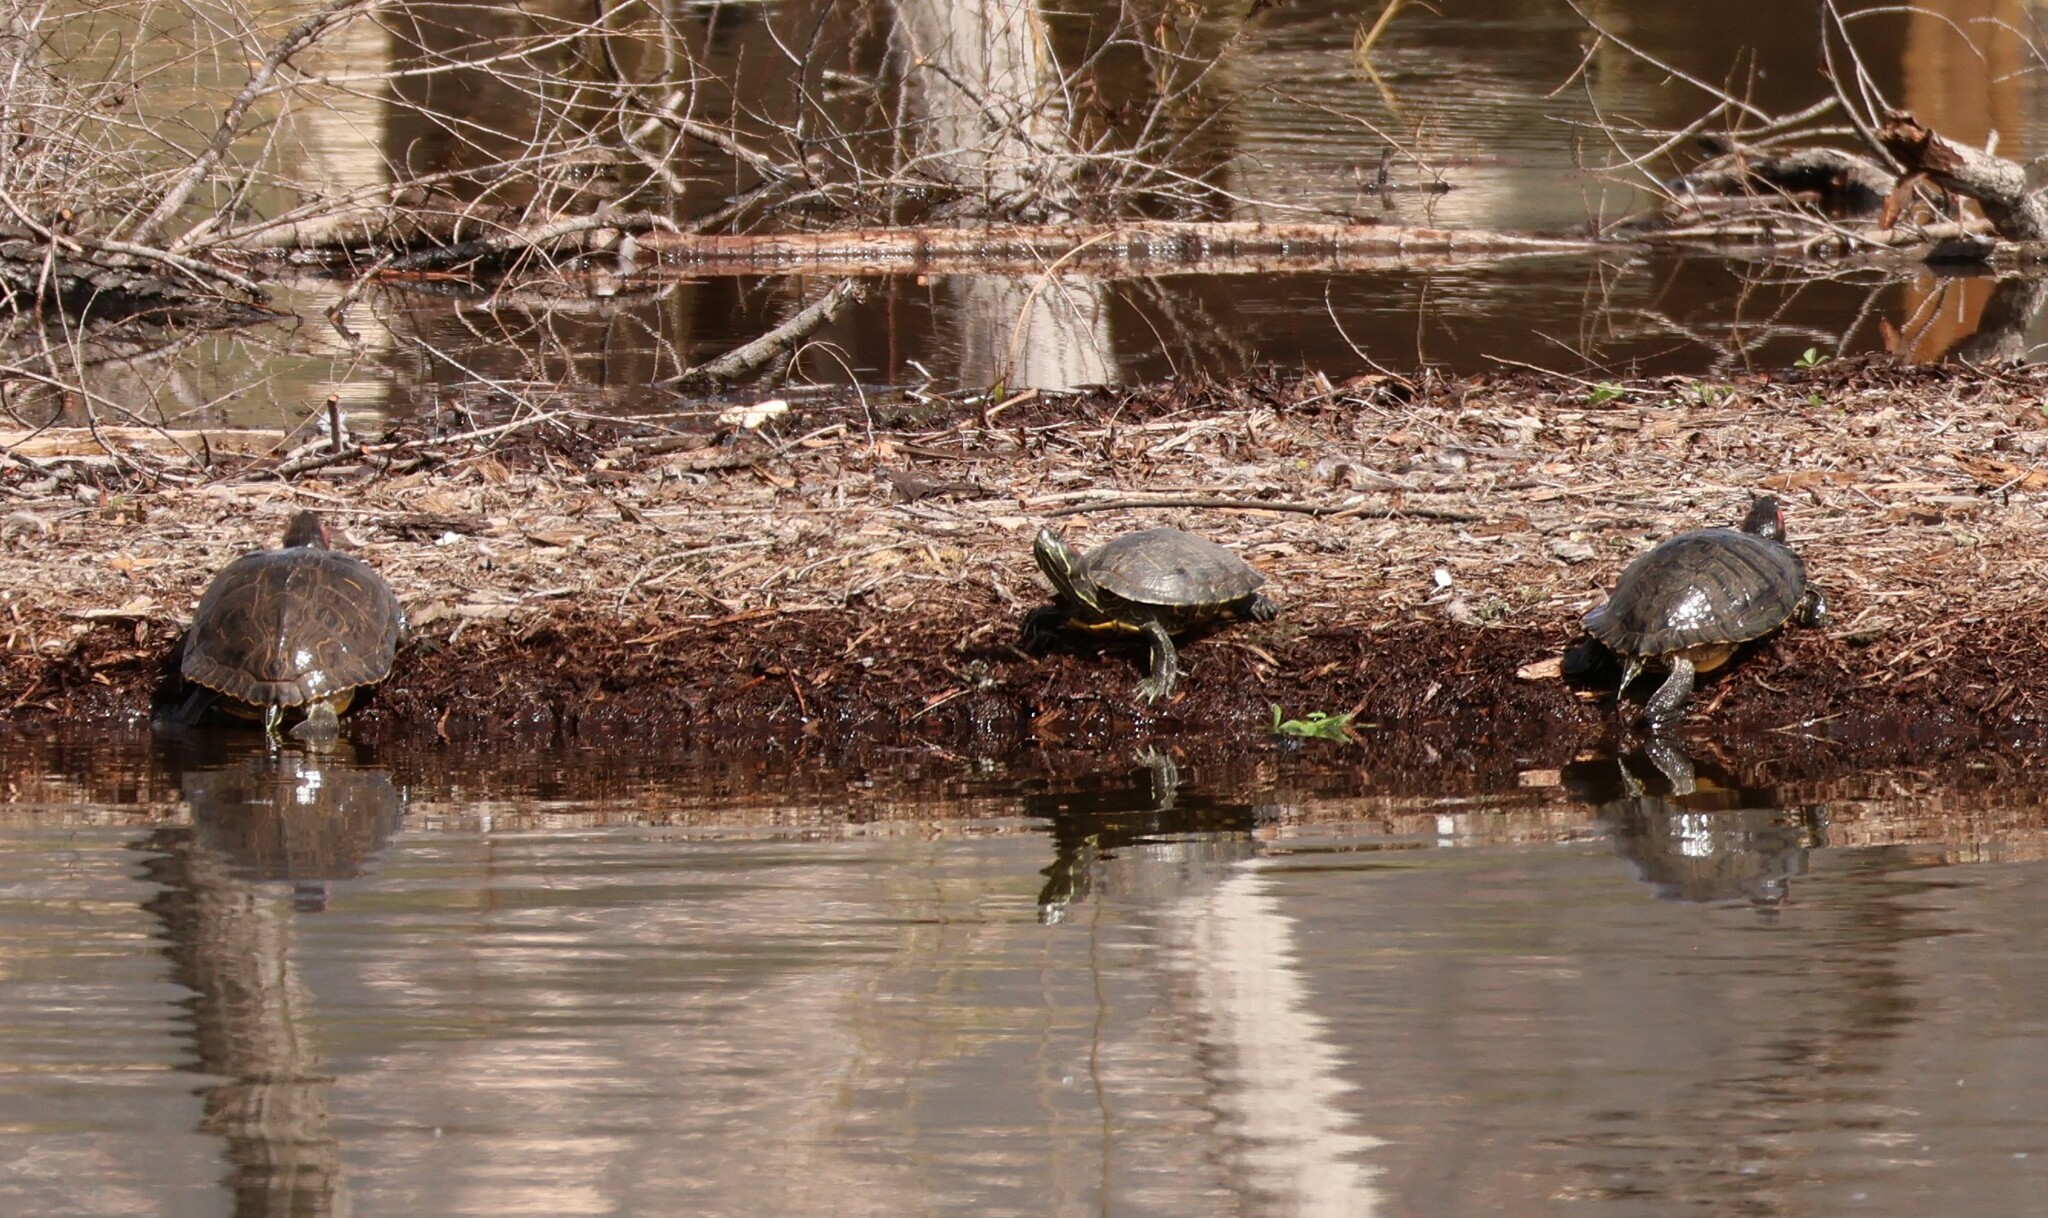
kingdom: Animalia
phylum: Chordata
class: Testudines
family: Emydidae
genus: Trachemys
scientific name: Trachemys scripta
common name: Slider
